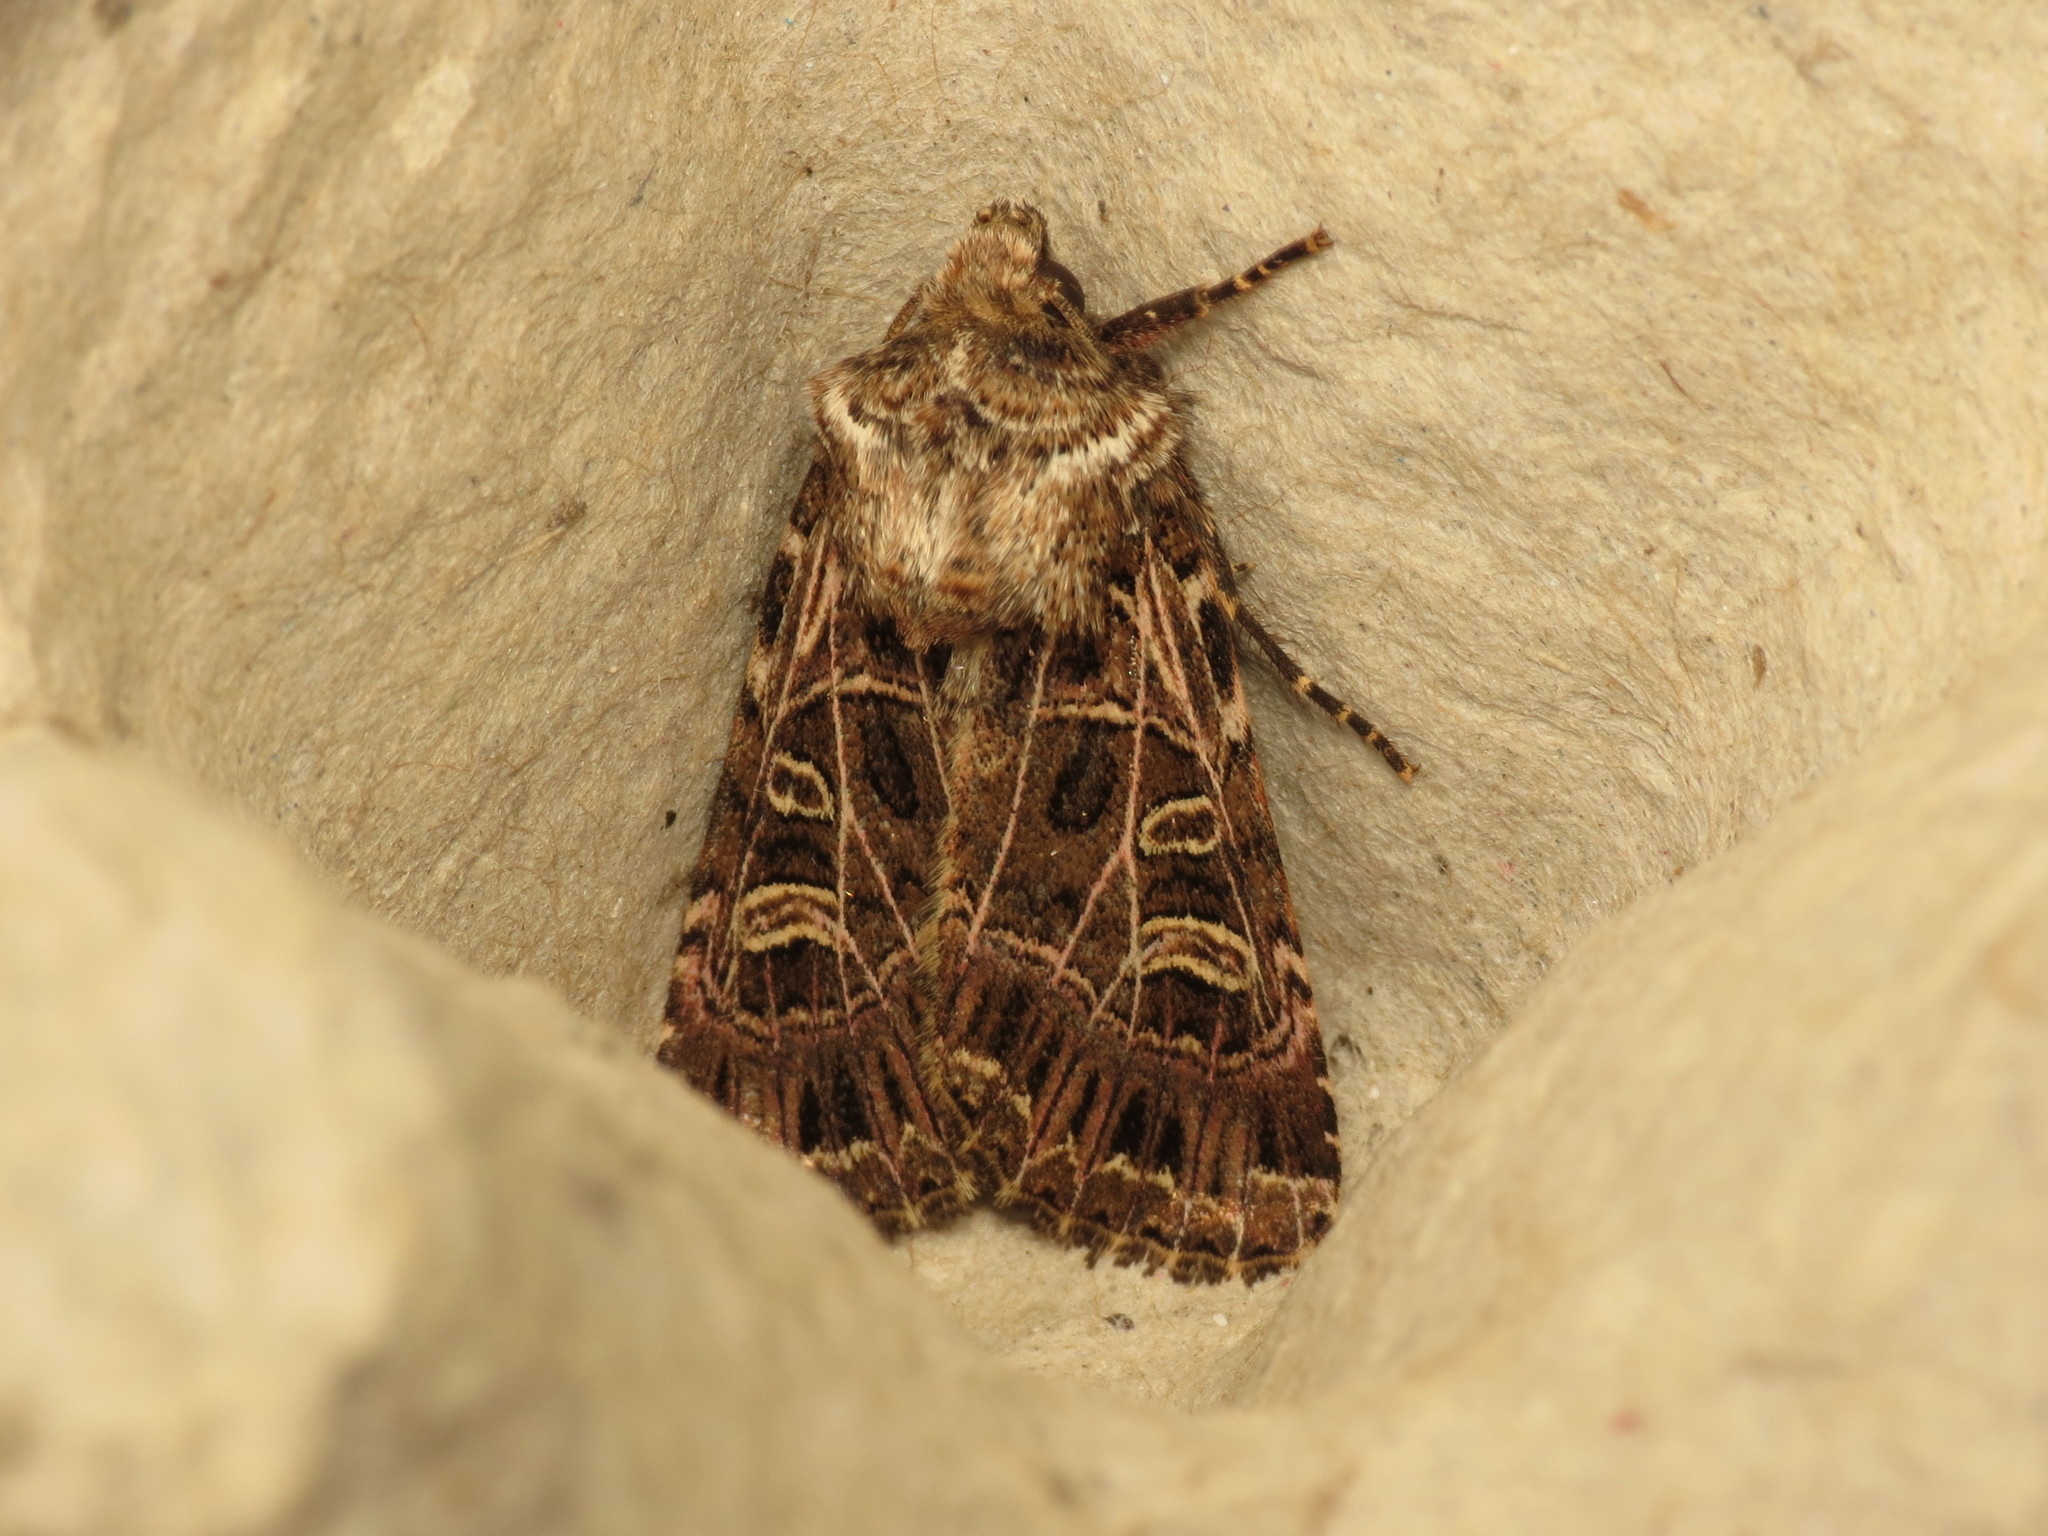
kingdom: Animalia
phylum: Arthropoda
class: Insecta
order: Lepidoptera
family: Noctuidae
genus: Sideridis
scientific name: Sideridis reticulata
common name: Bordered gothic
